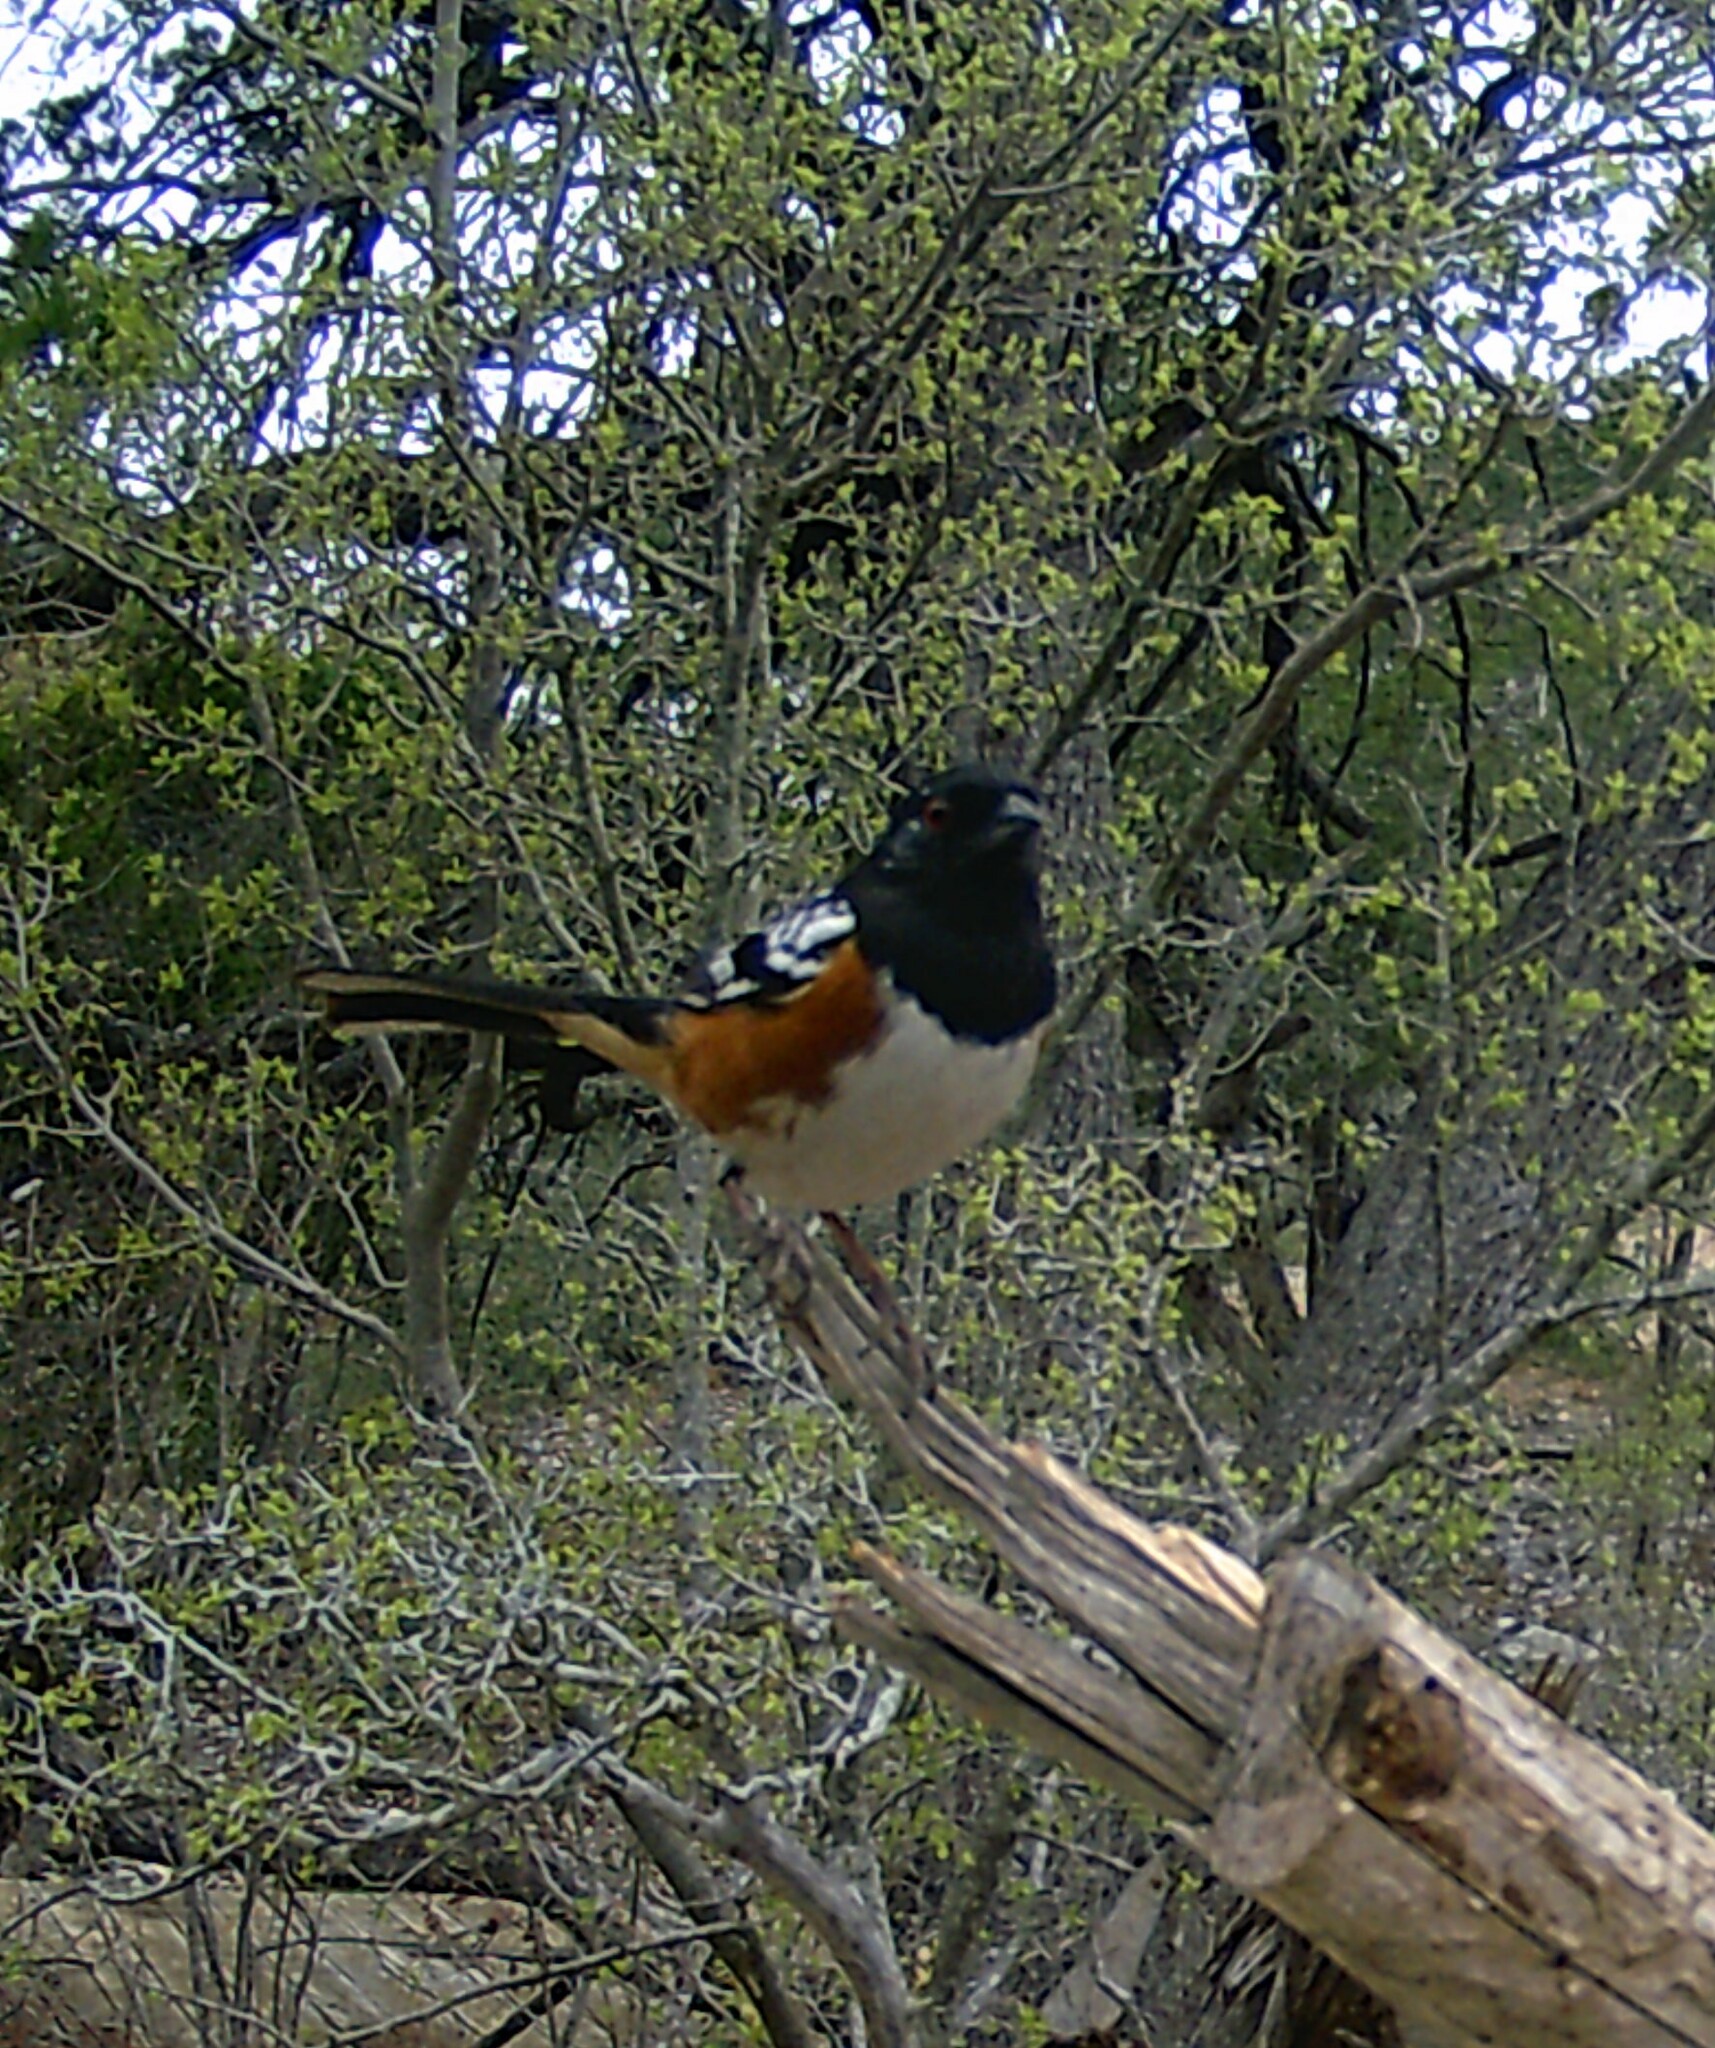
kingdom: Animalia
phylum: Chordata
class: Aves
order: Passeriformes
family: Passerellidae
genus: Pipilo
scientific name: Pipilo maculatus
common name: Spotted towhee
